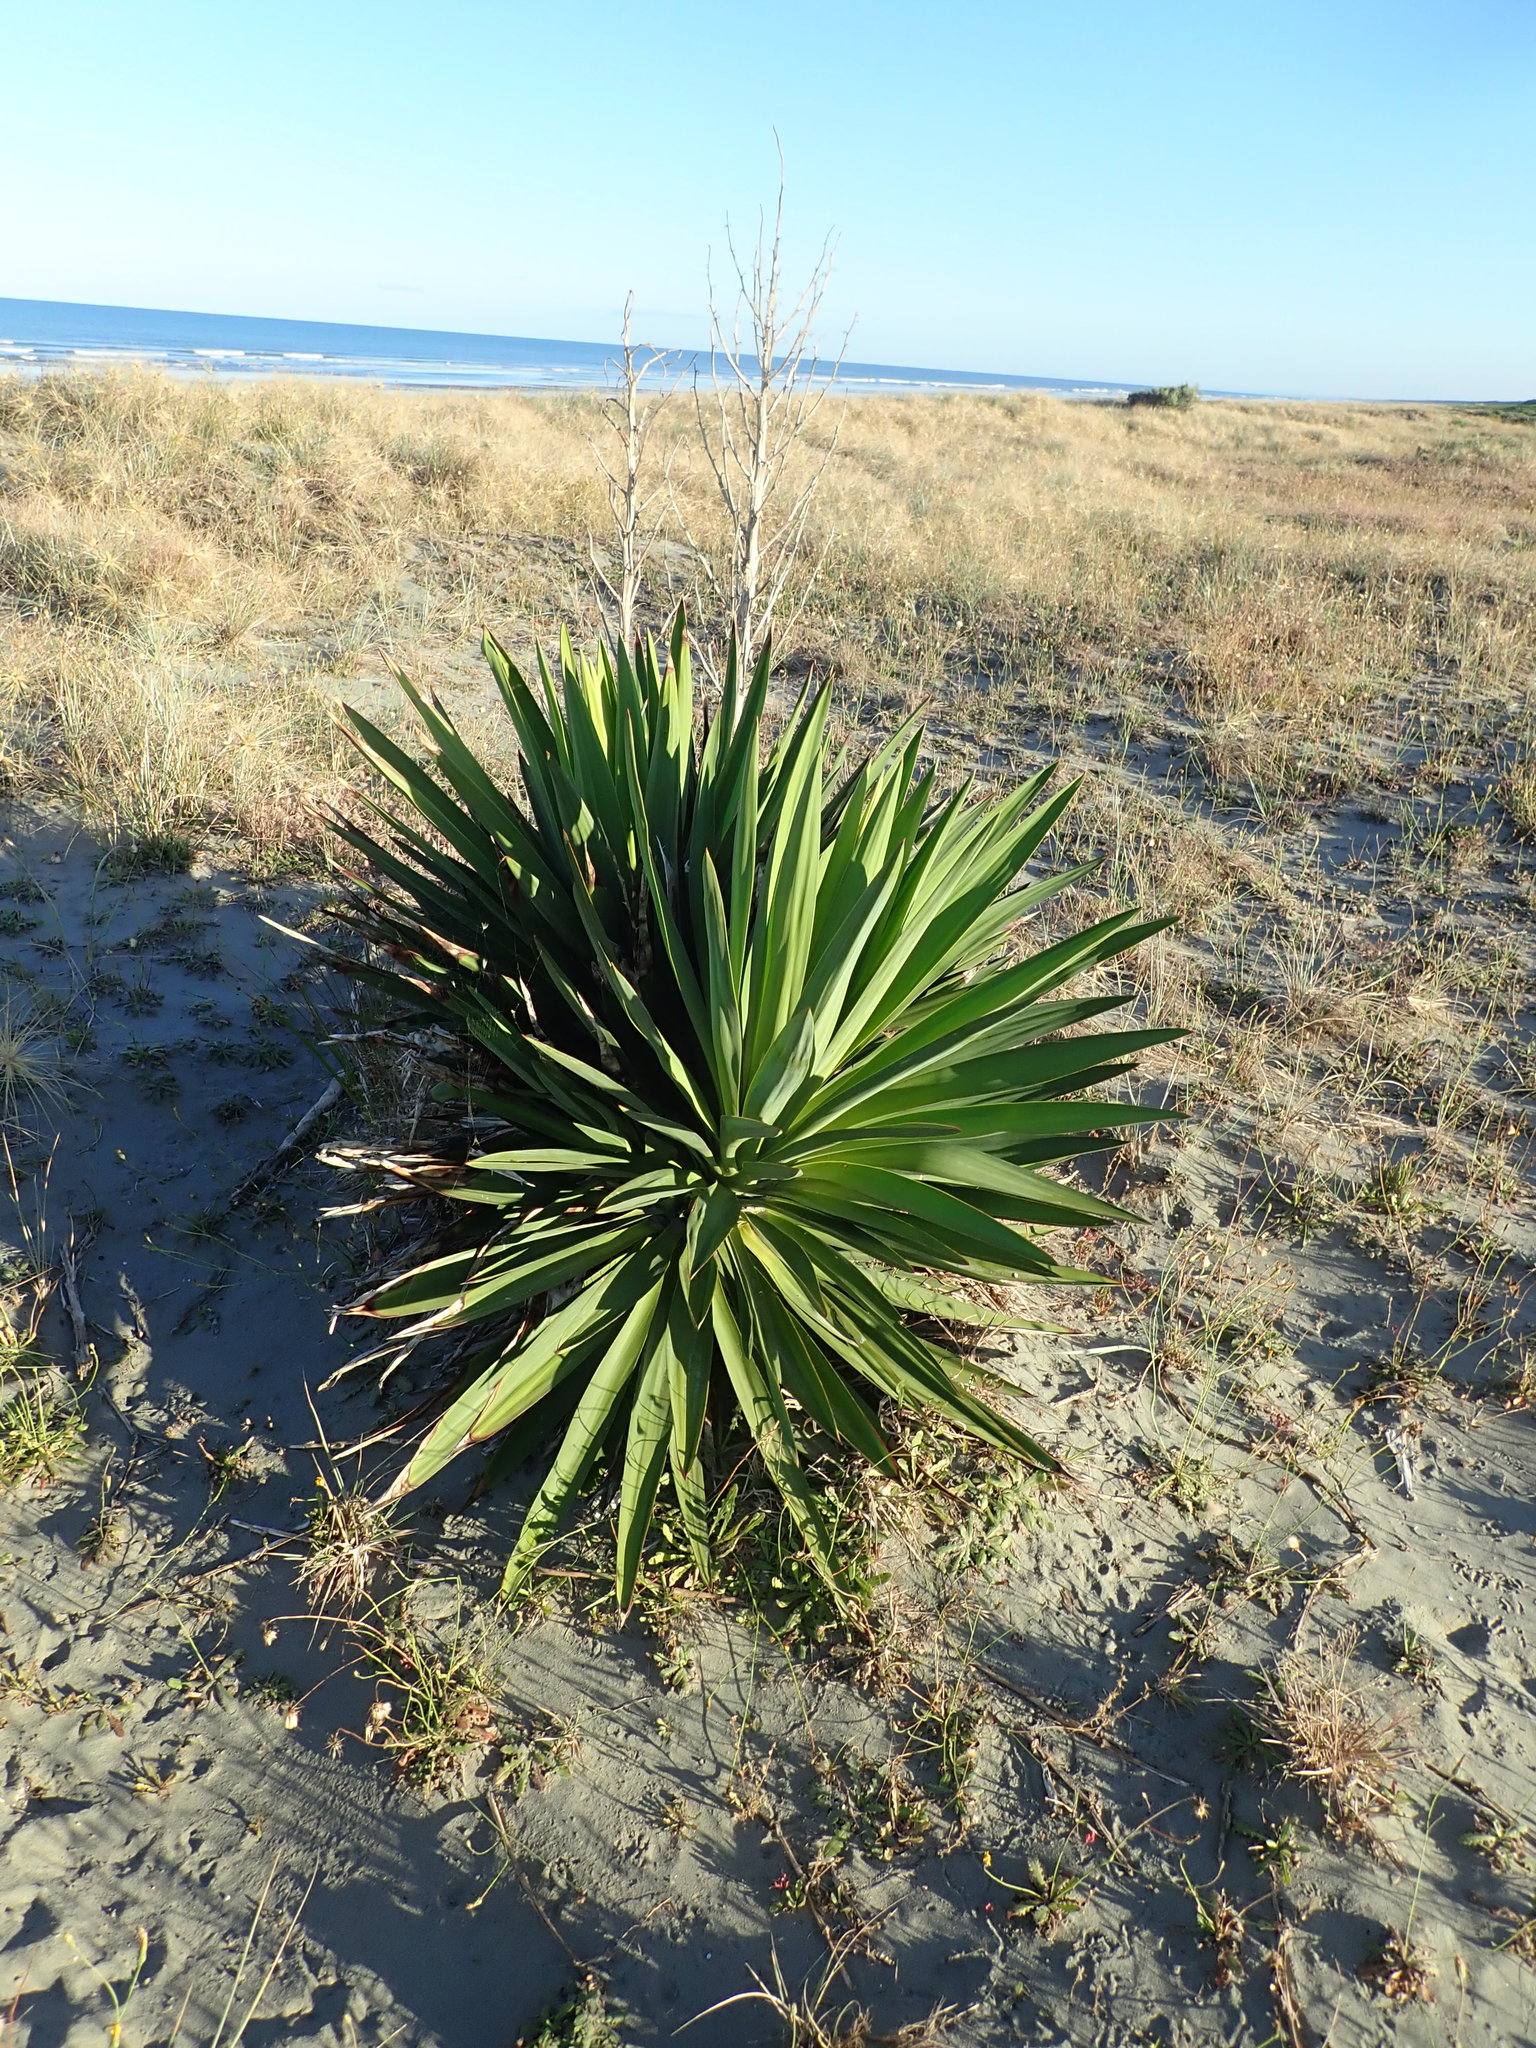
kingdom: Plantae
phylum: Tracheophyta
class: Liliopsida
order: Asparagales
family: Asparagaceae
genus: Yucca
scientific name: Yucca gloriosa
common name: Spanish-dagger
